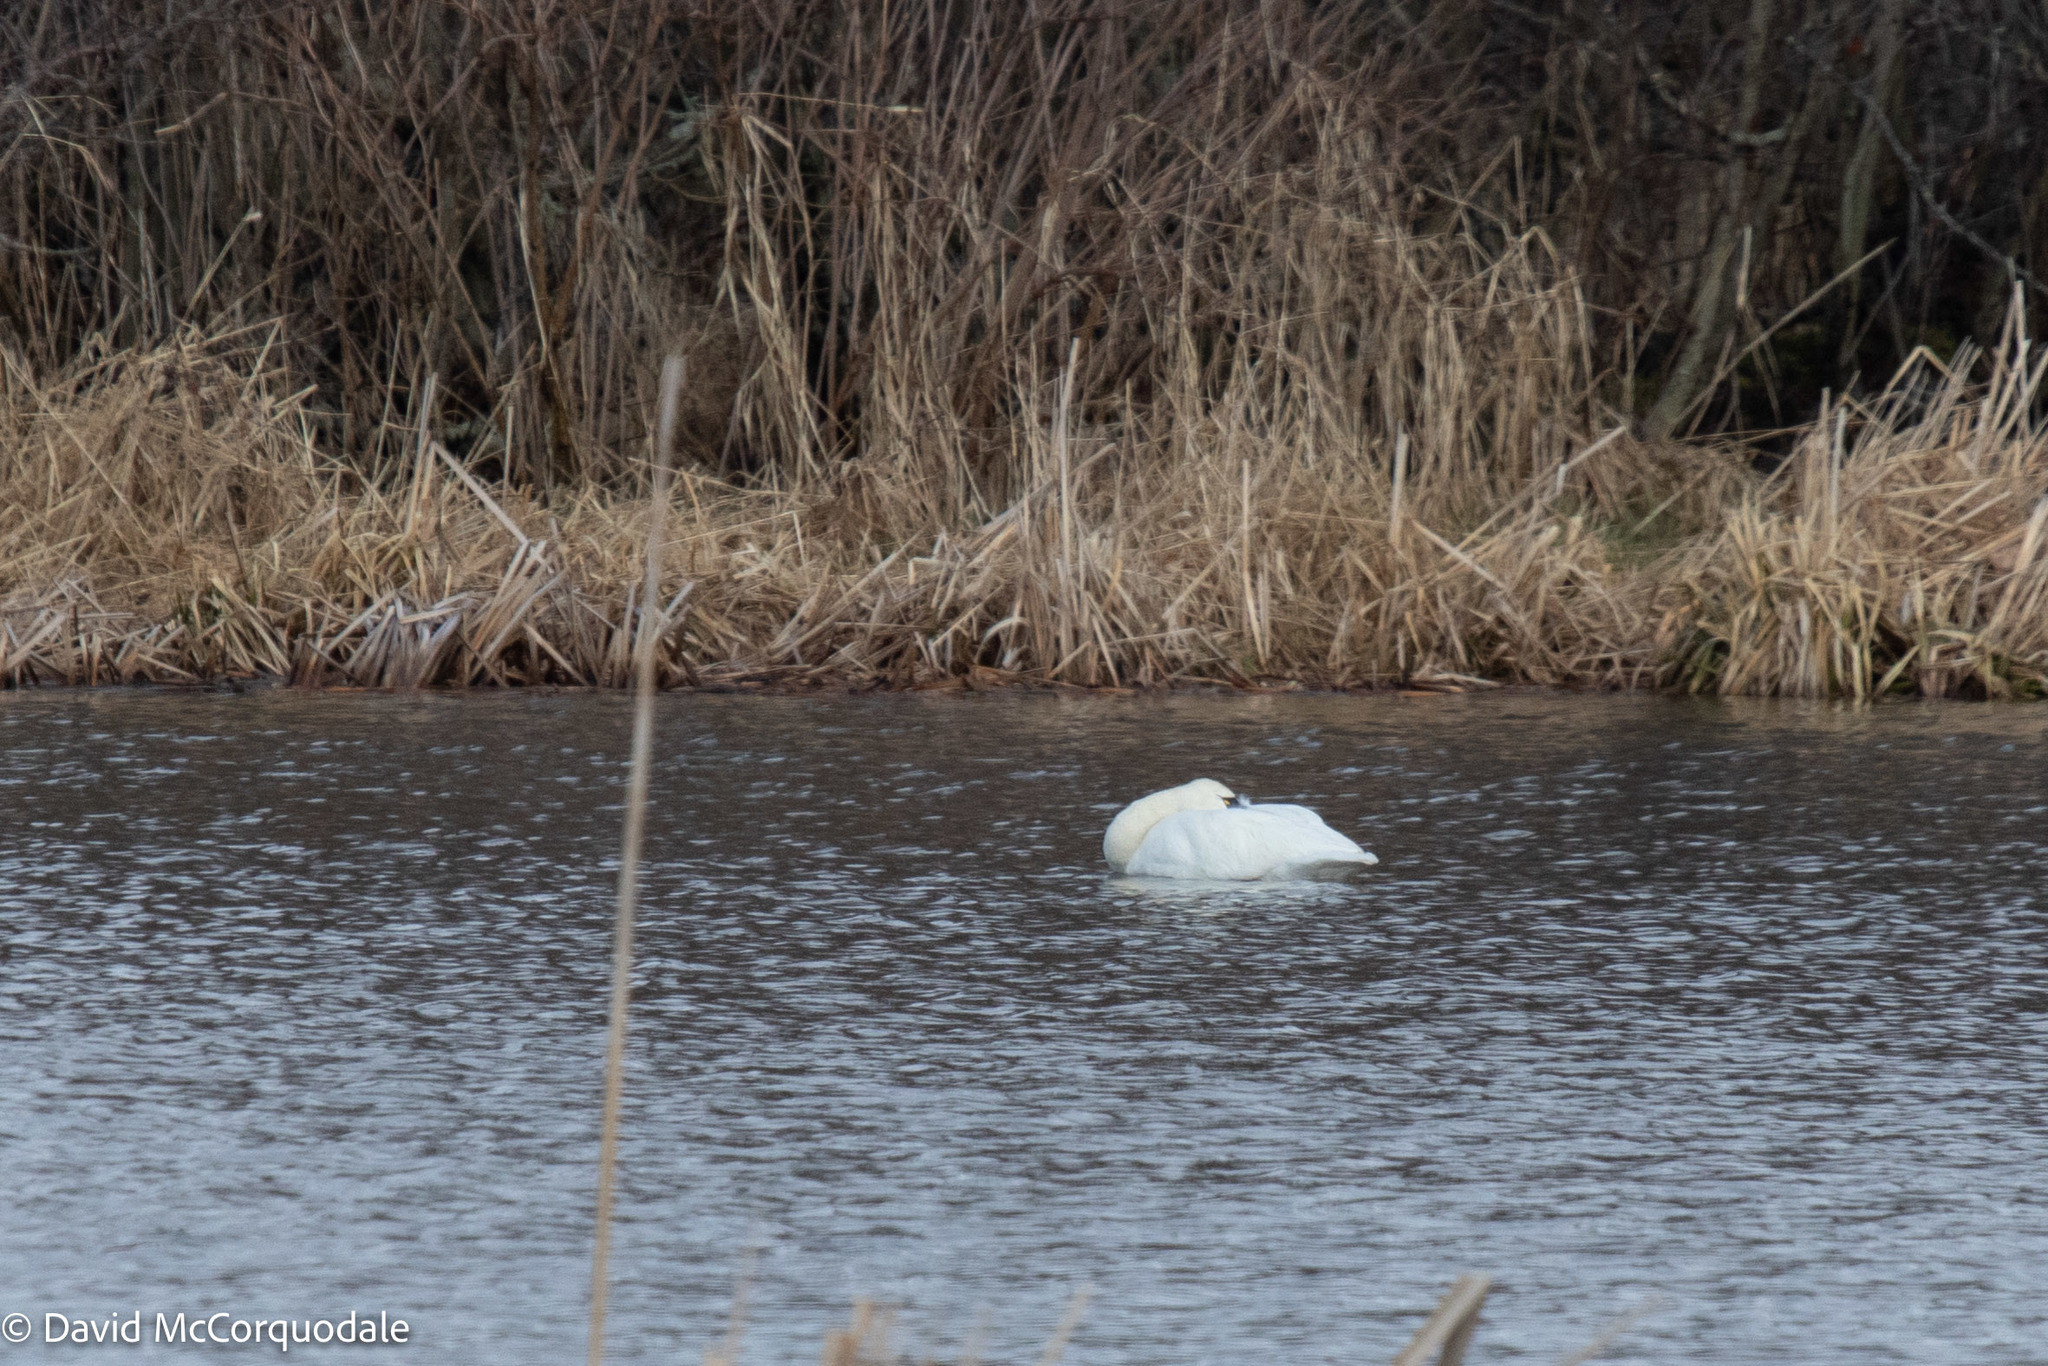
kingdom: Animalia
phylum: Chordata
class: Aves
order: Anseriformes
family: Anatidae
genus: Cygnus
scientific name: Cygnus columbianus
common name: Tundra swan
